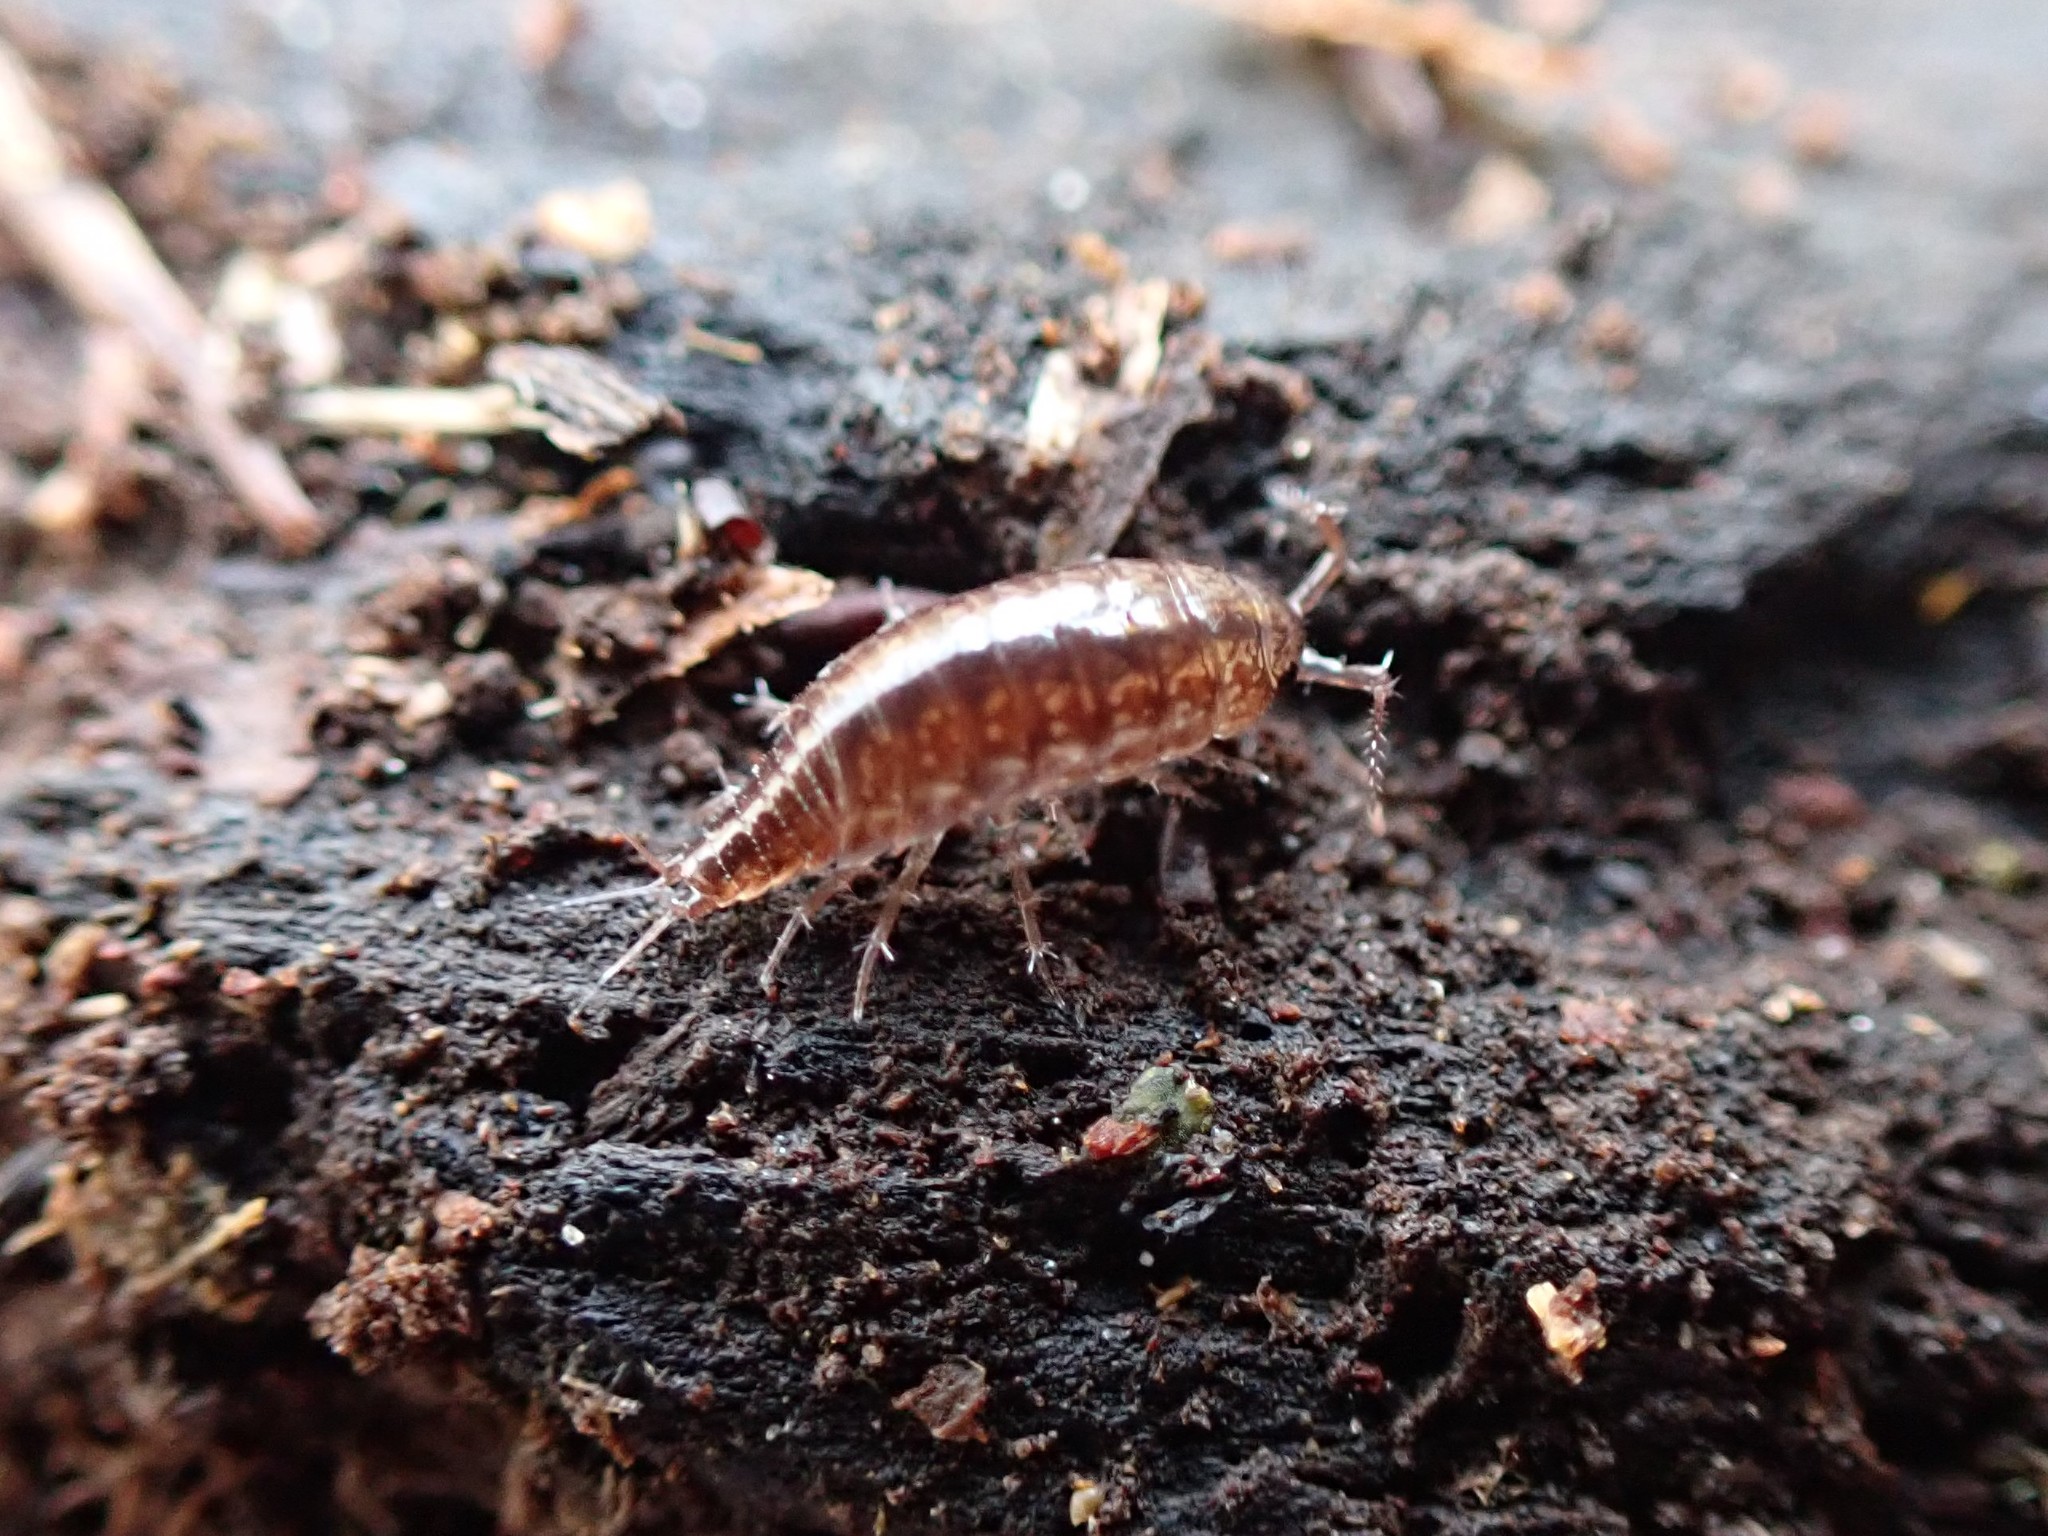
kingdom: Animalia
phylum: Arthropoda
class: Malacostraca
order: Isopoda
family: Ligiidae
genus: Ligidium
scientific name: Ligidium gracile
